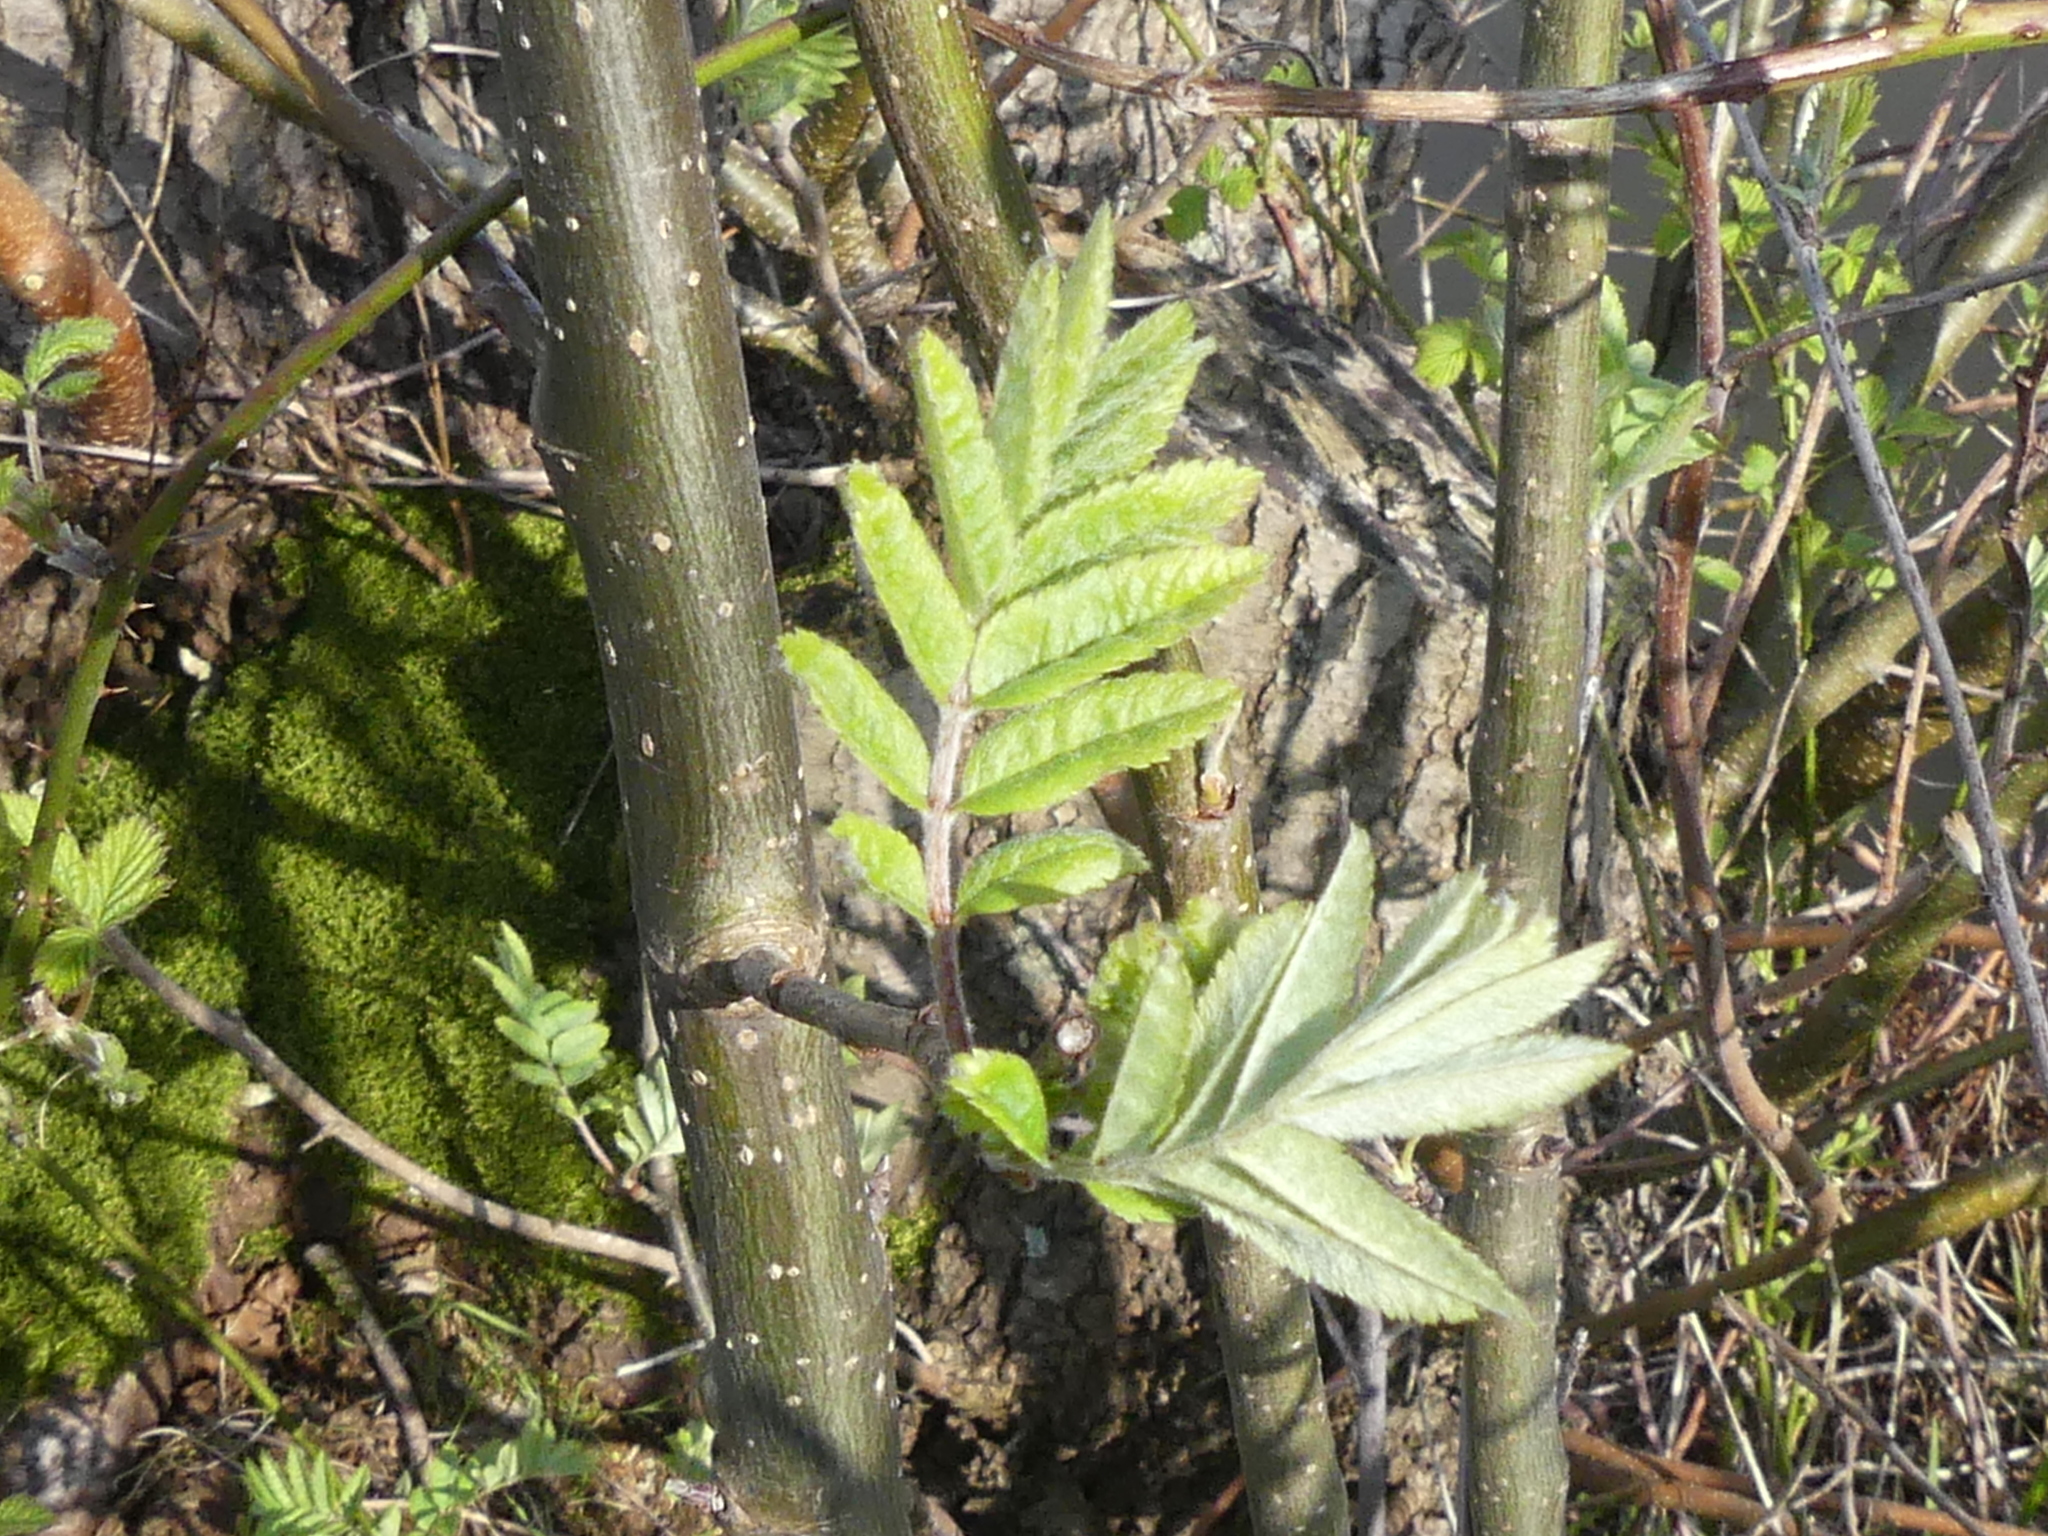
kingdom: Plantae
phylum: Tracheophyta
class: Magnoliopsida
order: Rosales
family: Rosaceae
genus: Sorbus
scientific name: Sorbus aucuparia
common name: Rowan
